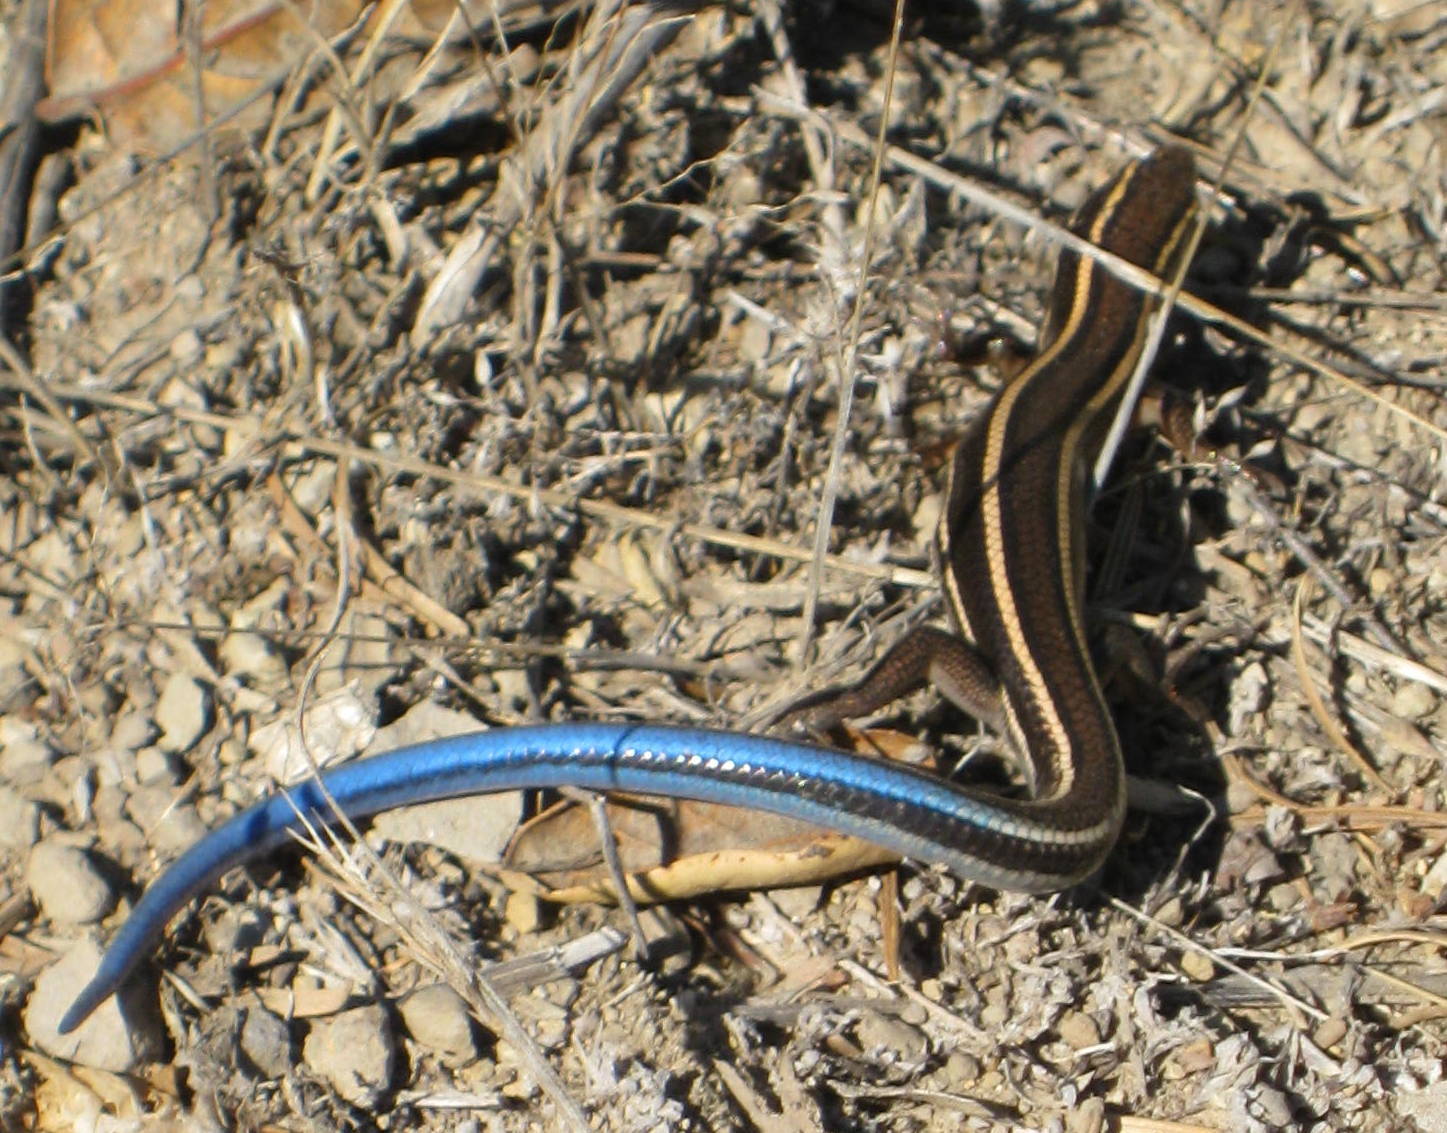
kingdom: Animalia
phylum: Chordata
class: Squamata
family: Scincidae
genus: Plestiodon
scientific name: Plestiodon skiltonianus
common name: Coronado island skink [interparietalis]
